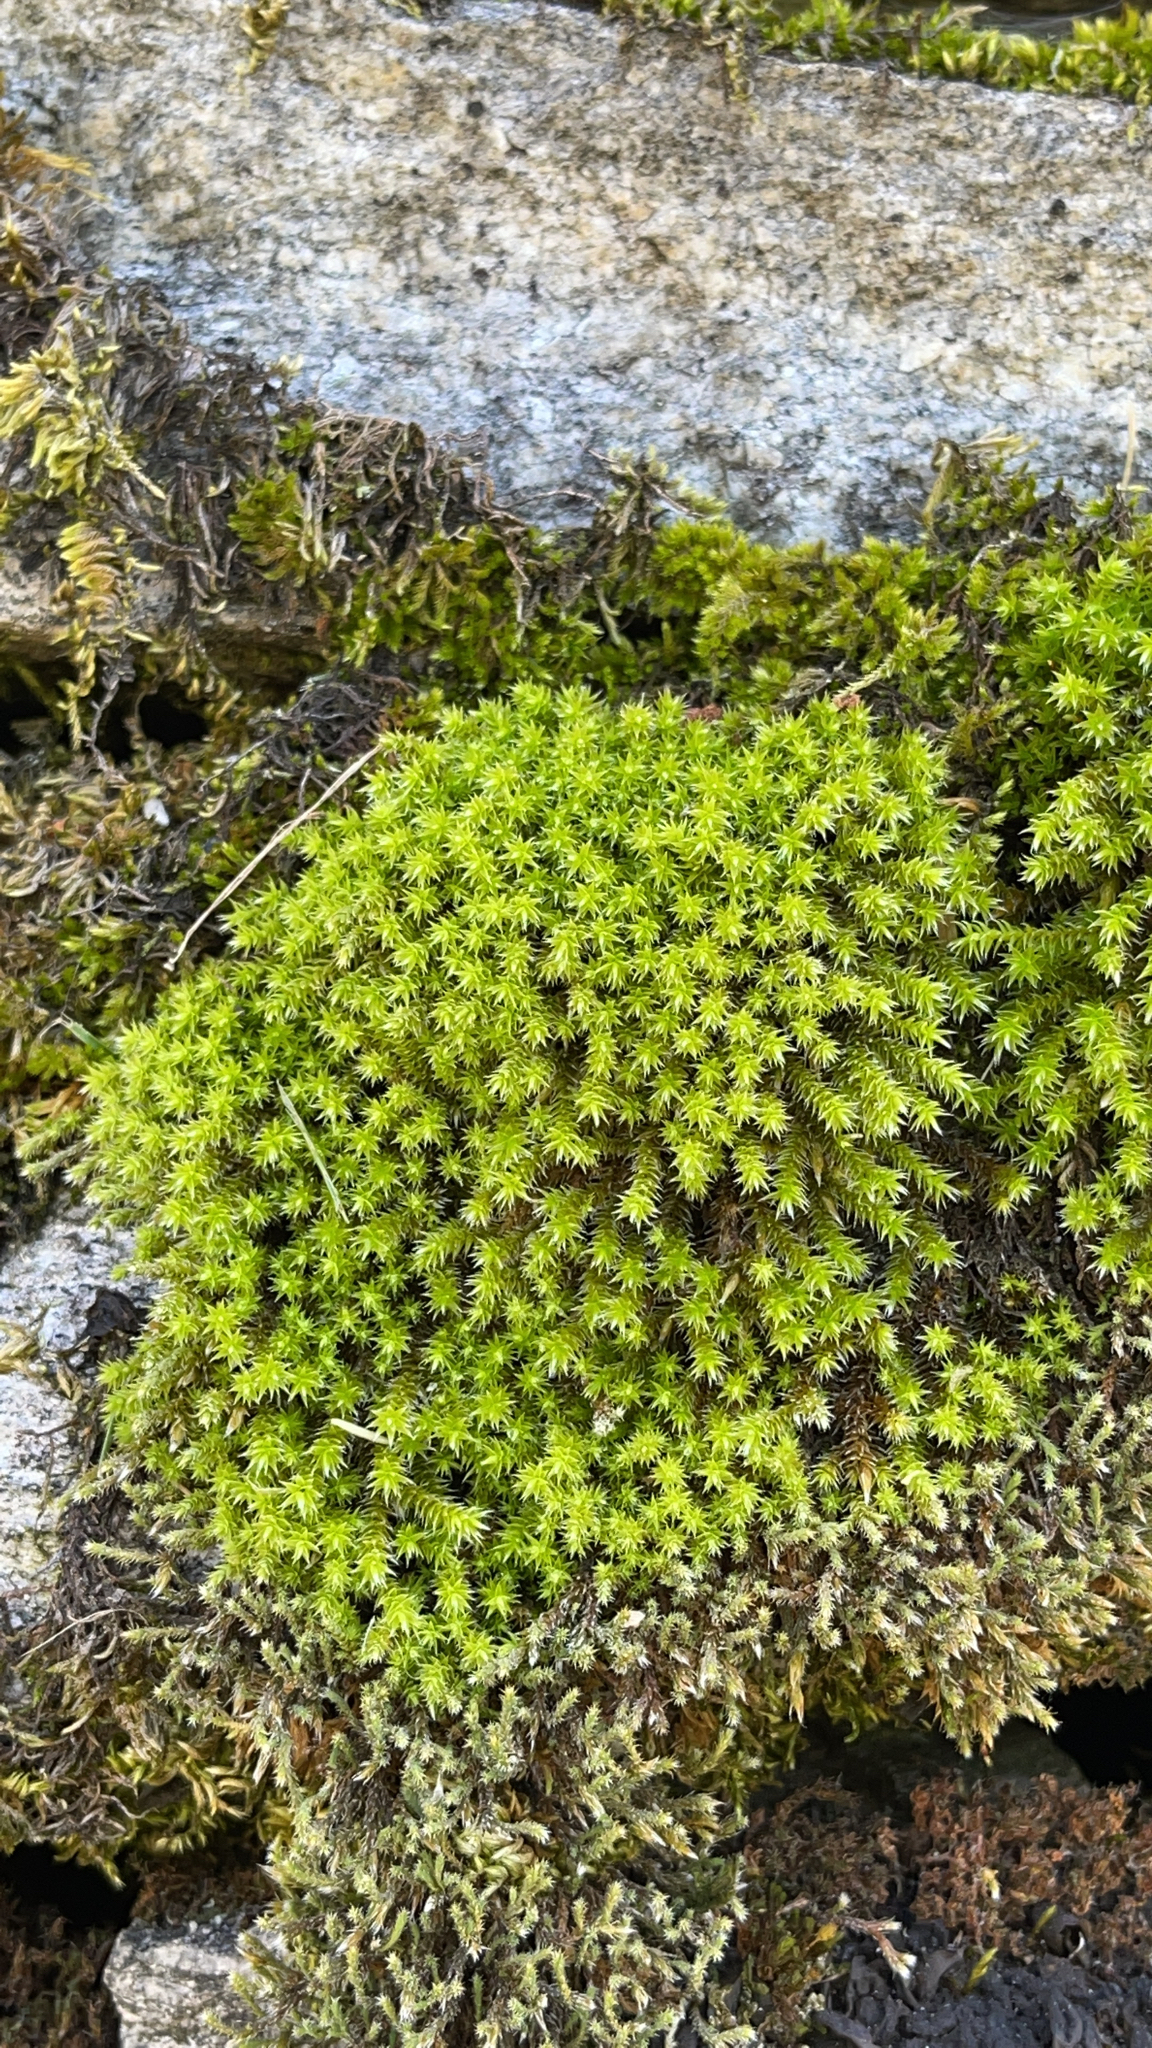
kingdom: Plantae
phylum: Bryophyta
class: Bryopsida
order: Hedwigiales
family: Hedwigiaceae
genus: Hedwigia
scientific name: Hedwigia ciliata
